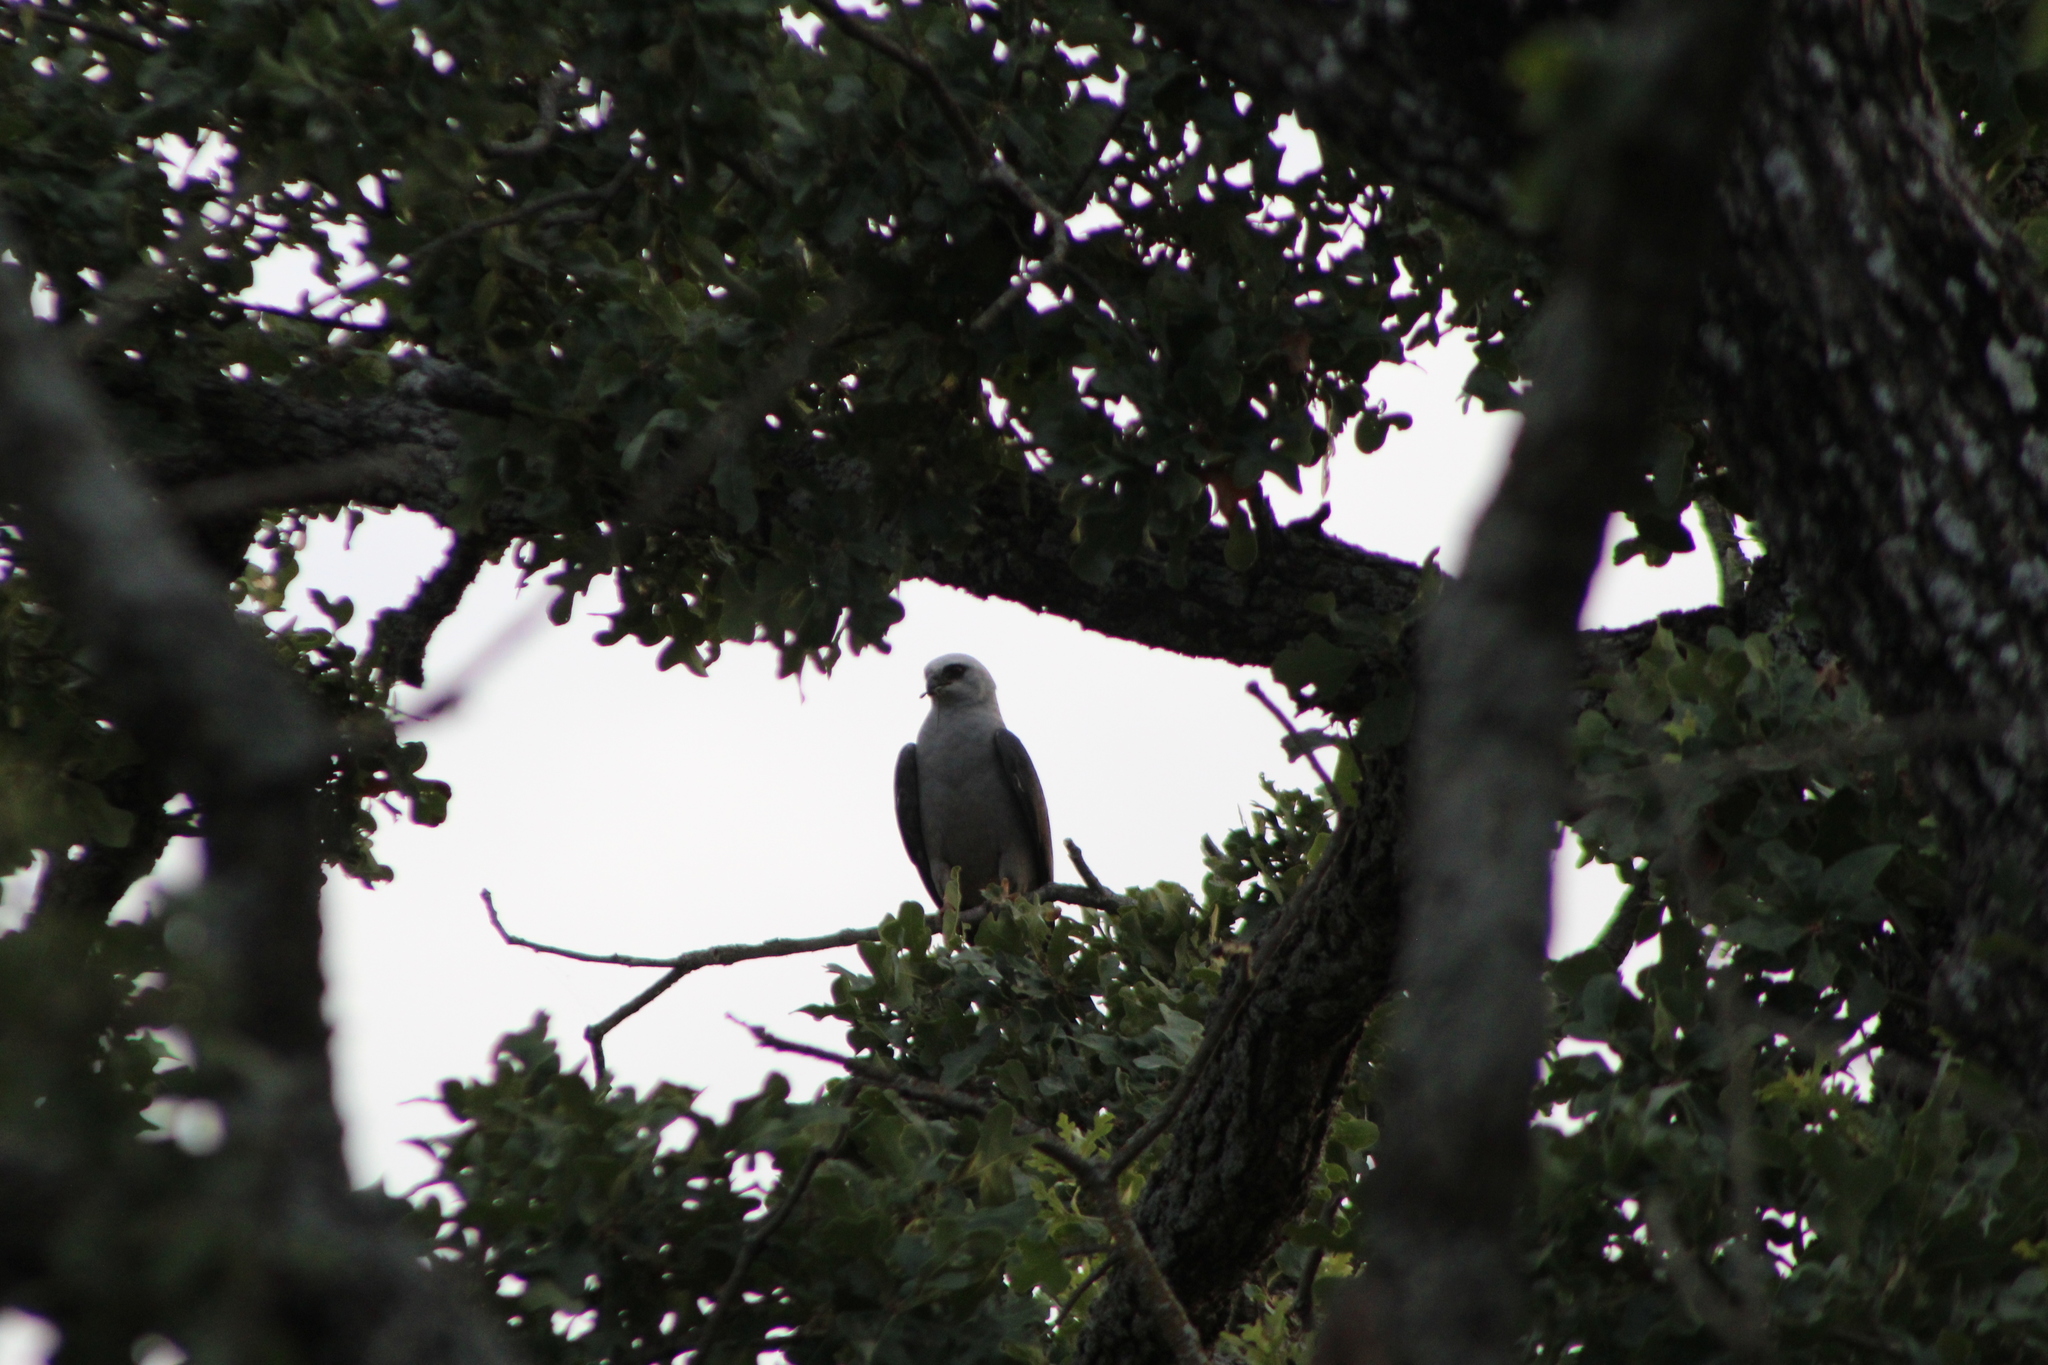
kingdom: Animalia
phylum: Chordata
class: Aves
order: Accipitriformes
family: Accipitridae
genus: Ictinia
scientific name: Ictinia mississippiensis
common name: Mississippi kite
